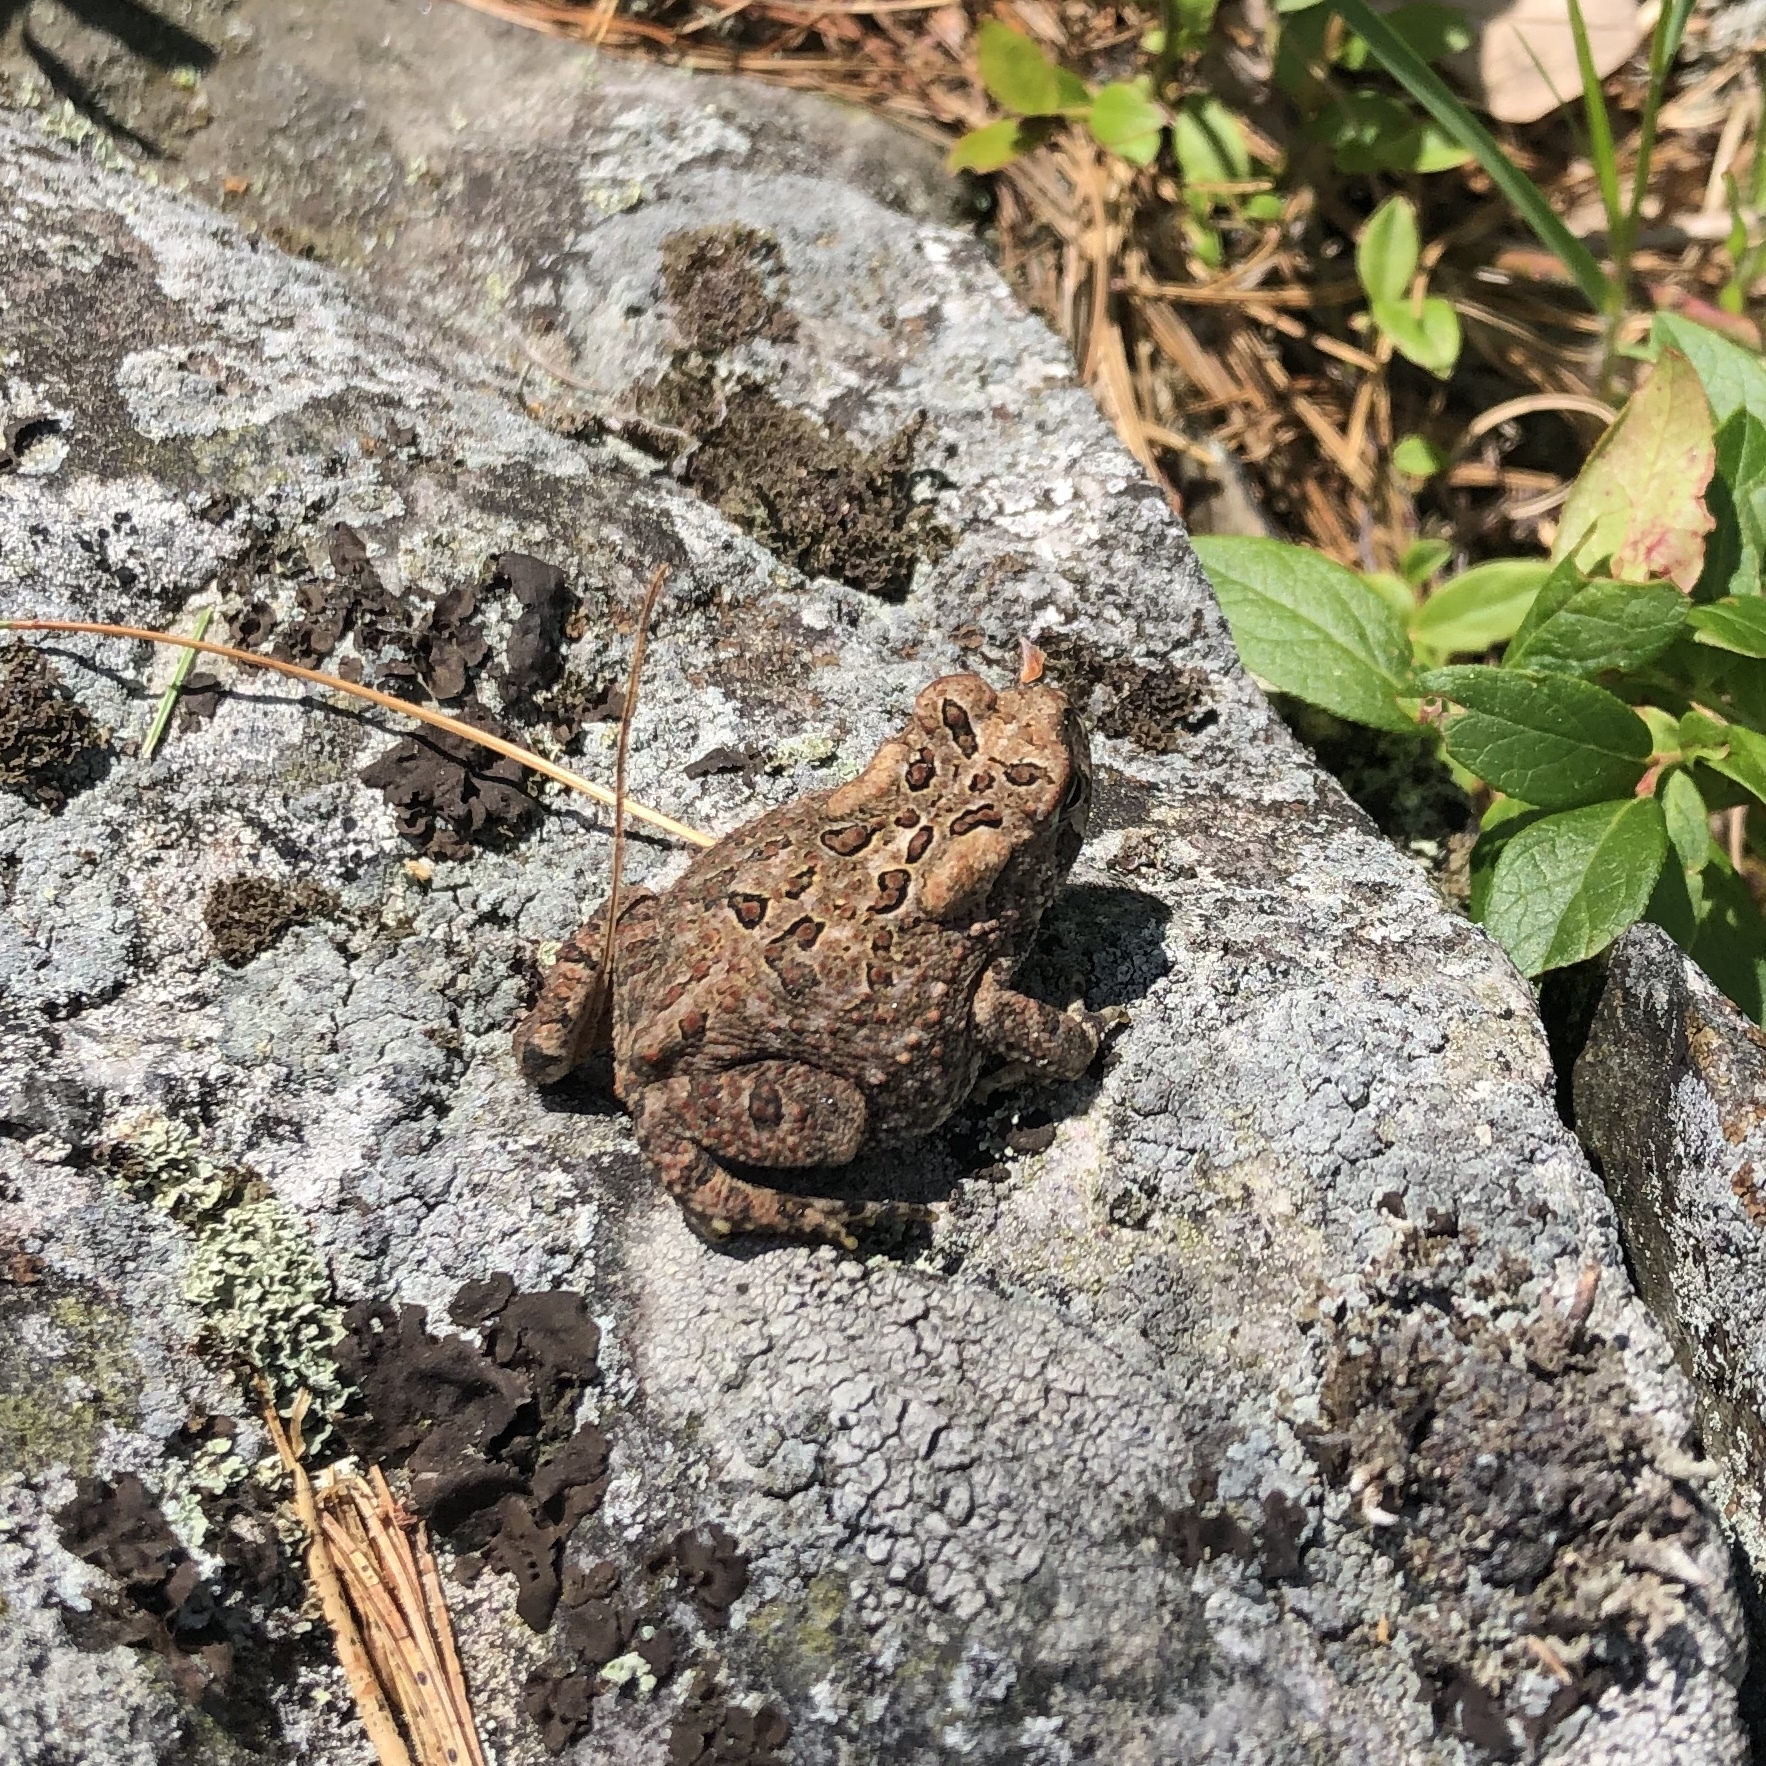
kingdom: Animalia
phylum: Chordata
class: Amphibia
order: Anura
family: Bufonidae
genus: Anaxyrus
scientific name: Anaxyrus americanus
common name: American toad
